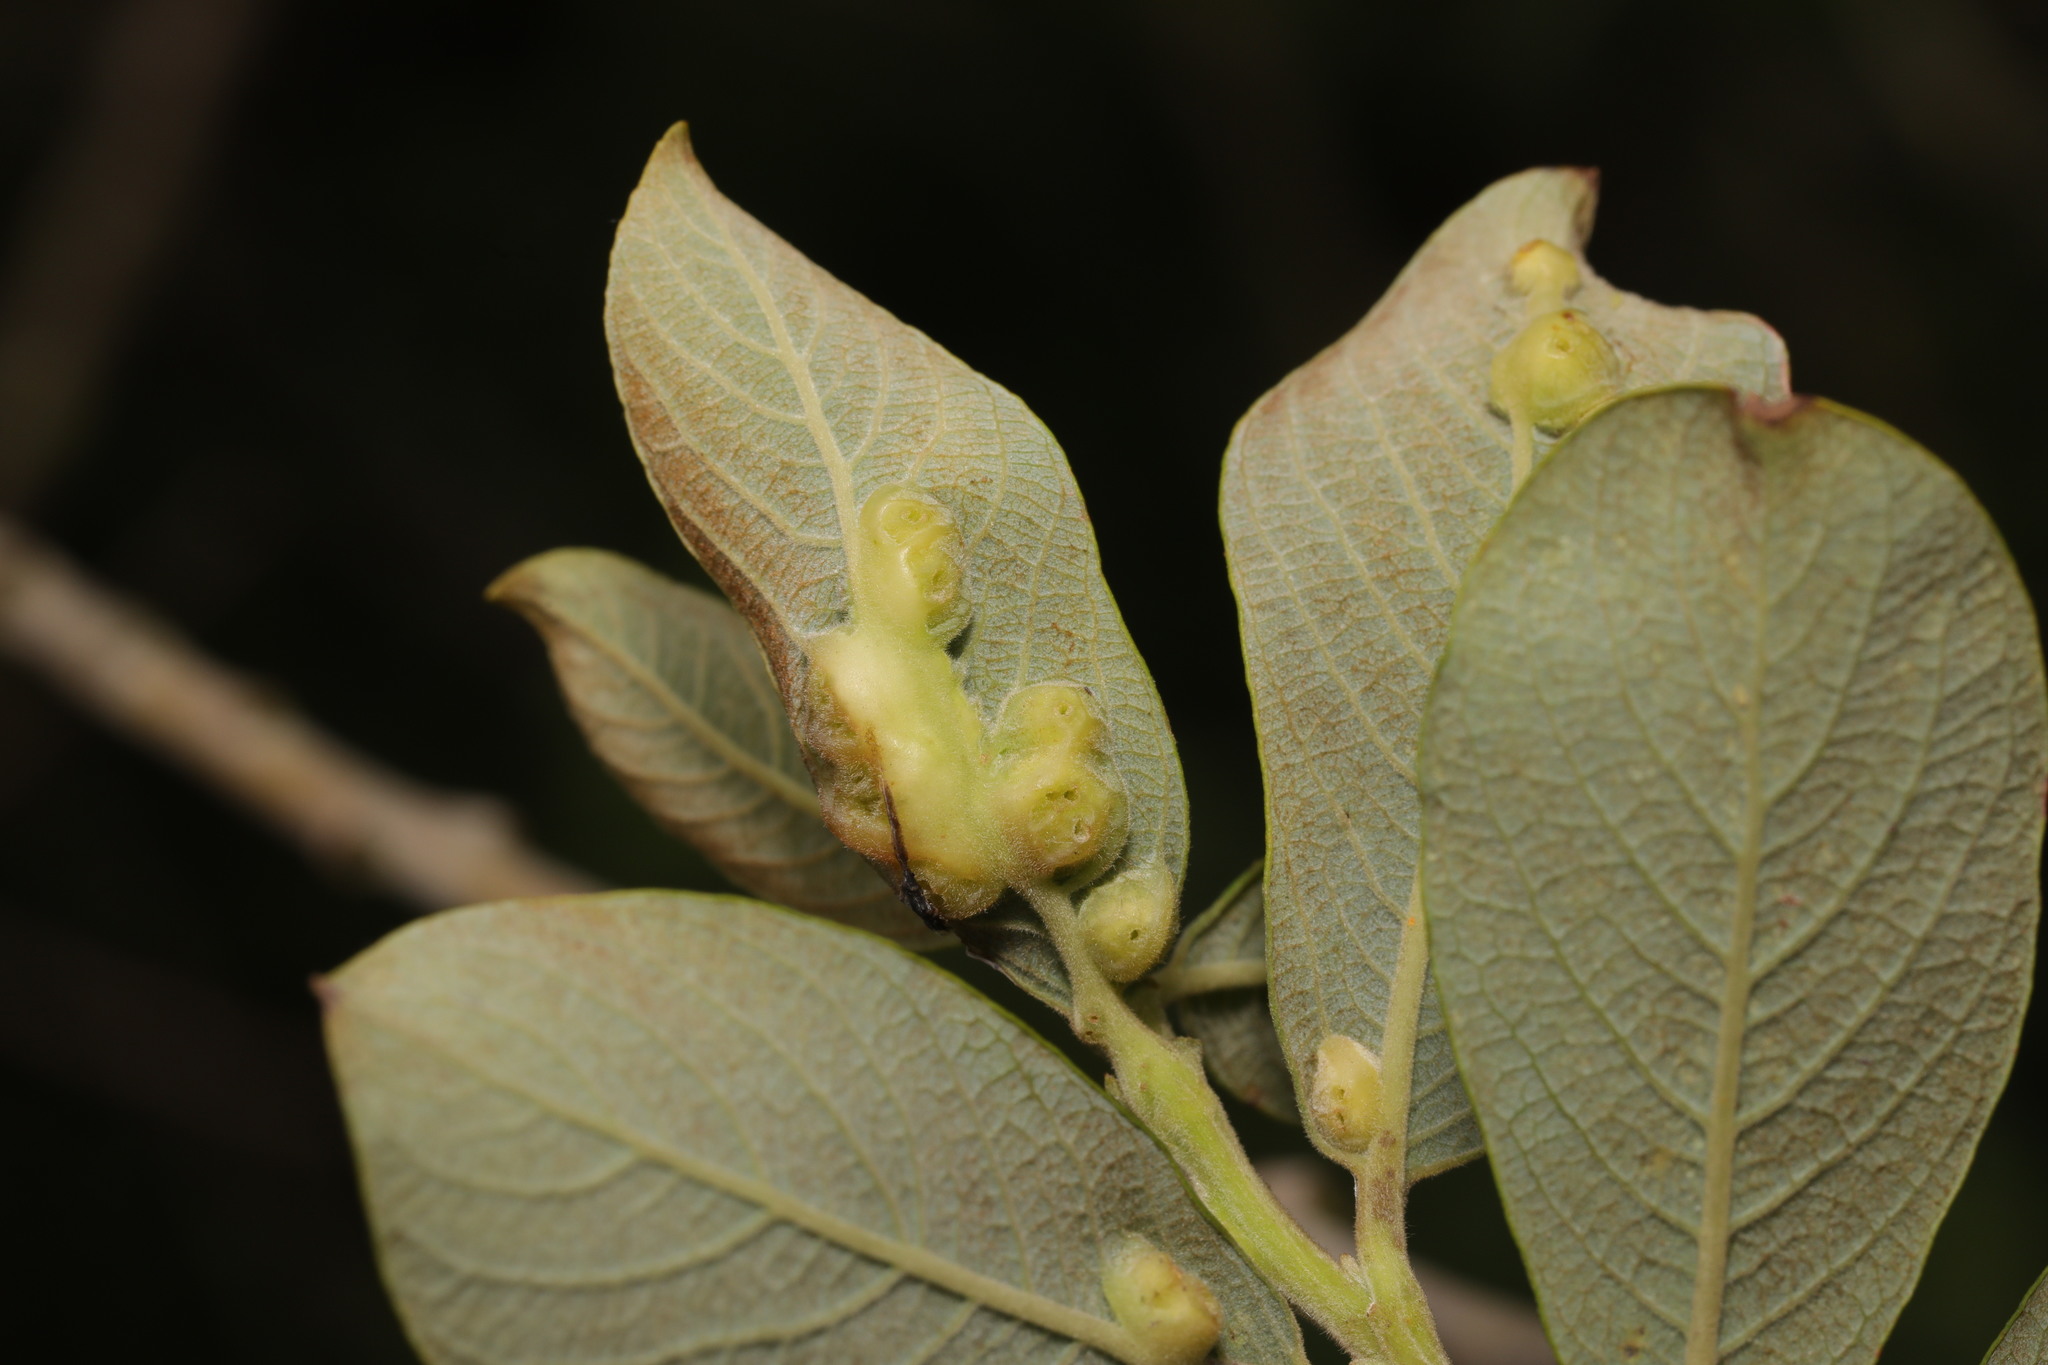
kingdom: Animalia
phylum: Arthropoda
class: Insecta
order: Diptera
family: Cecidomyiidae
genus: Iteomyia
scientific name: Iteomyia major
